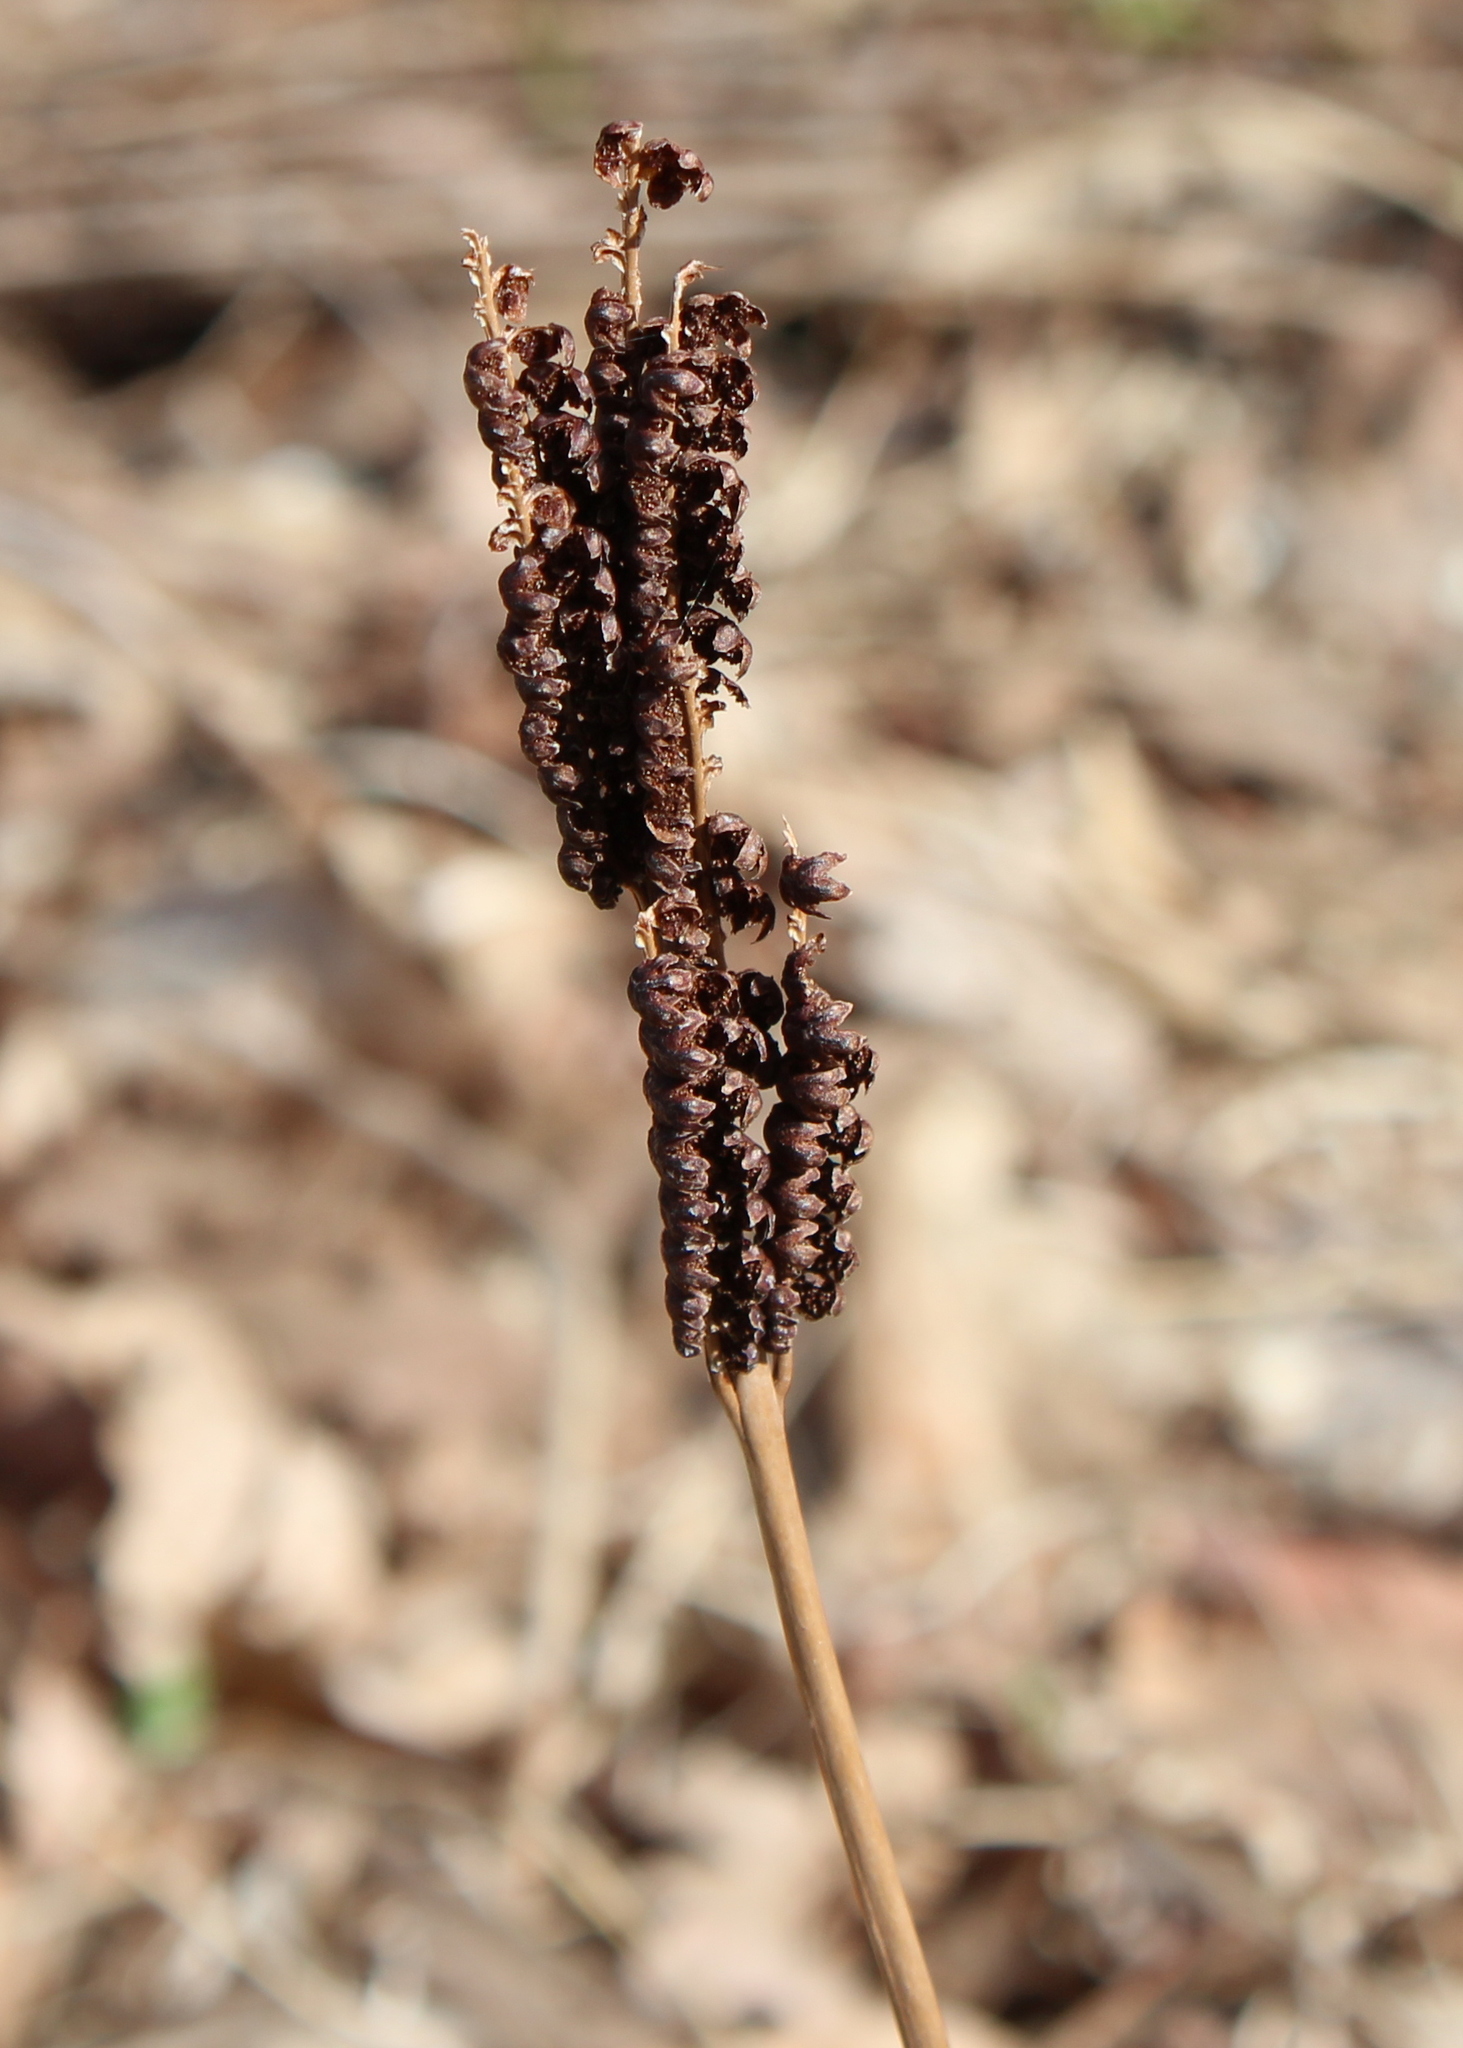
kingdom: Plantae
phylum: Tracheophyta
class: Polypodiopsida
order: Polypodiales
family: Onocleaceae
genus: Onoclea
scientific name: Onoclea sensibilis
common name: Sensitive fern
